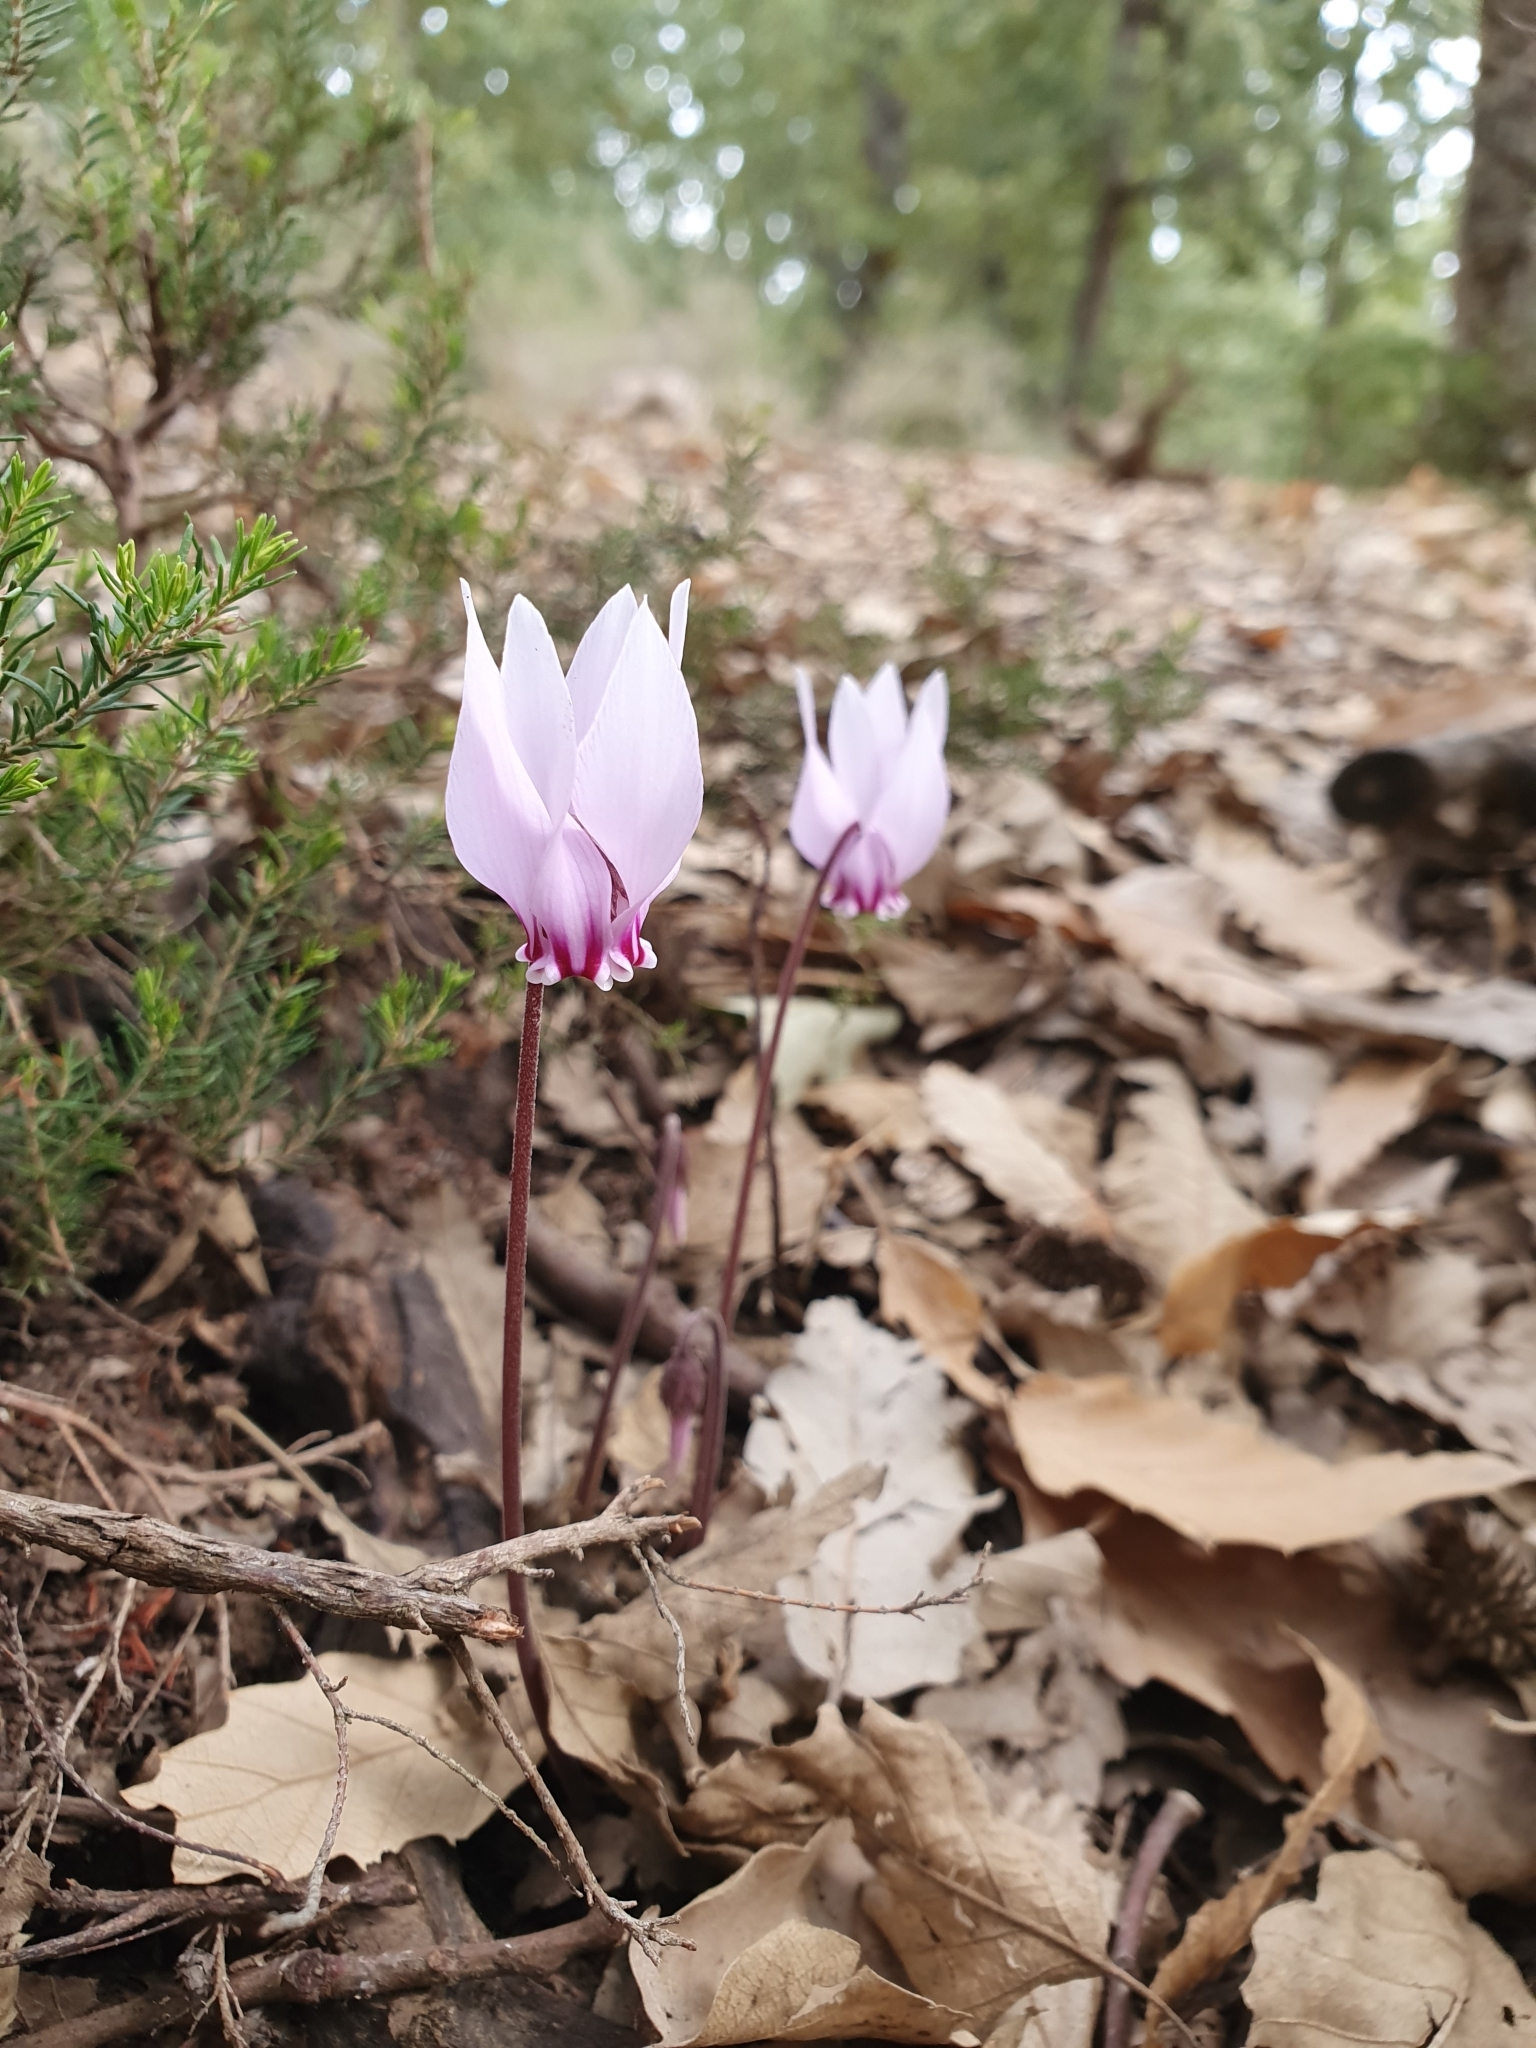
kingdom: Plantae
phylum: Tracheophyta
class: Magnoliopsida
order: Ericales
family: Primulaceae
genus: Cyclamen
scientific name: Cyclamen africanum
